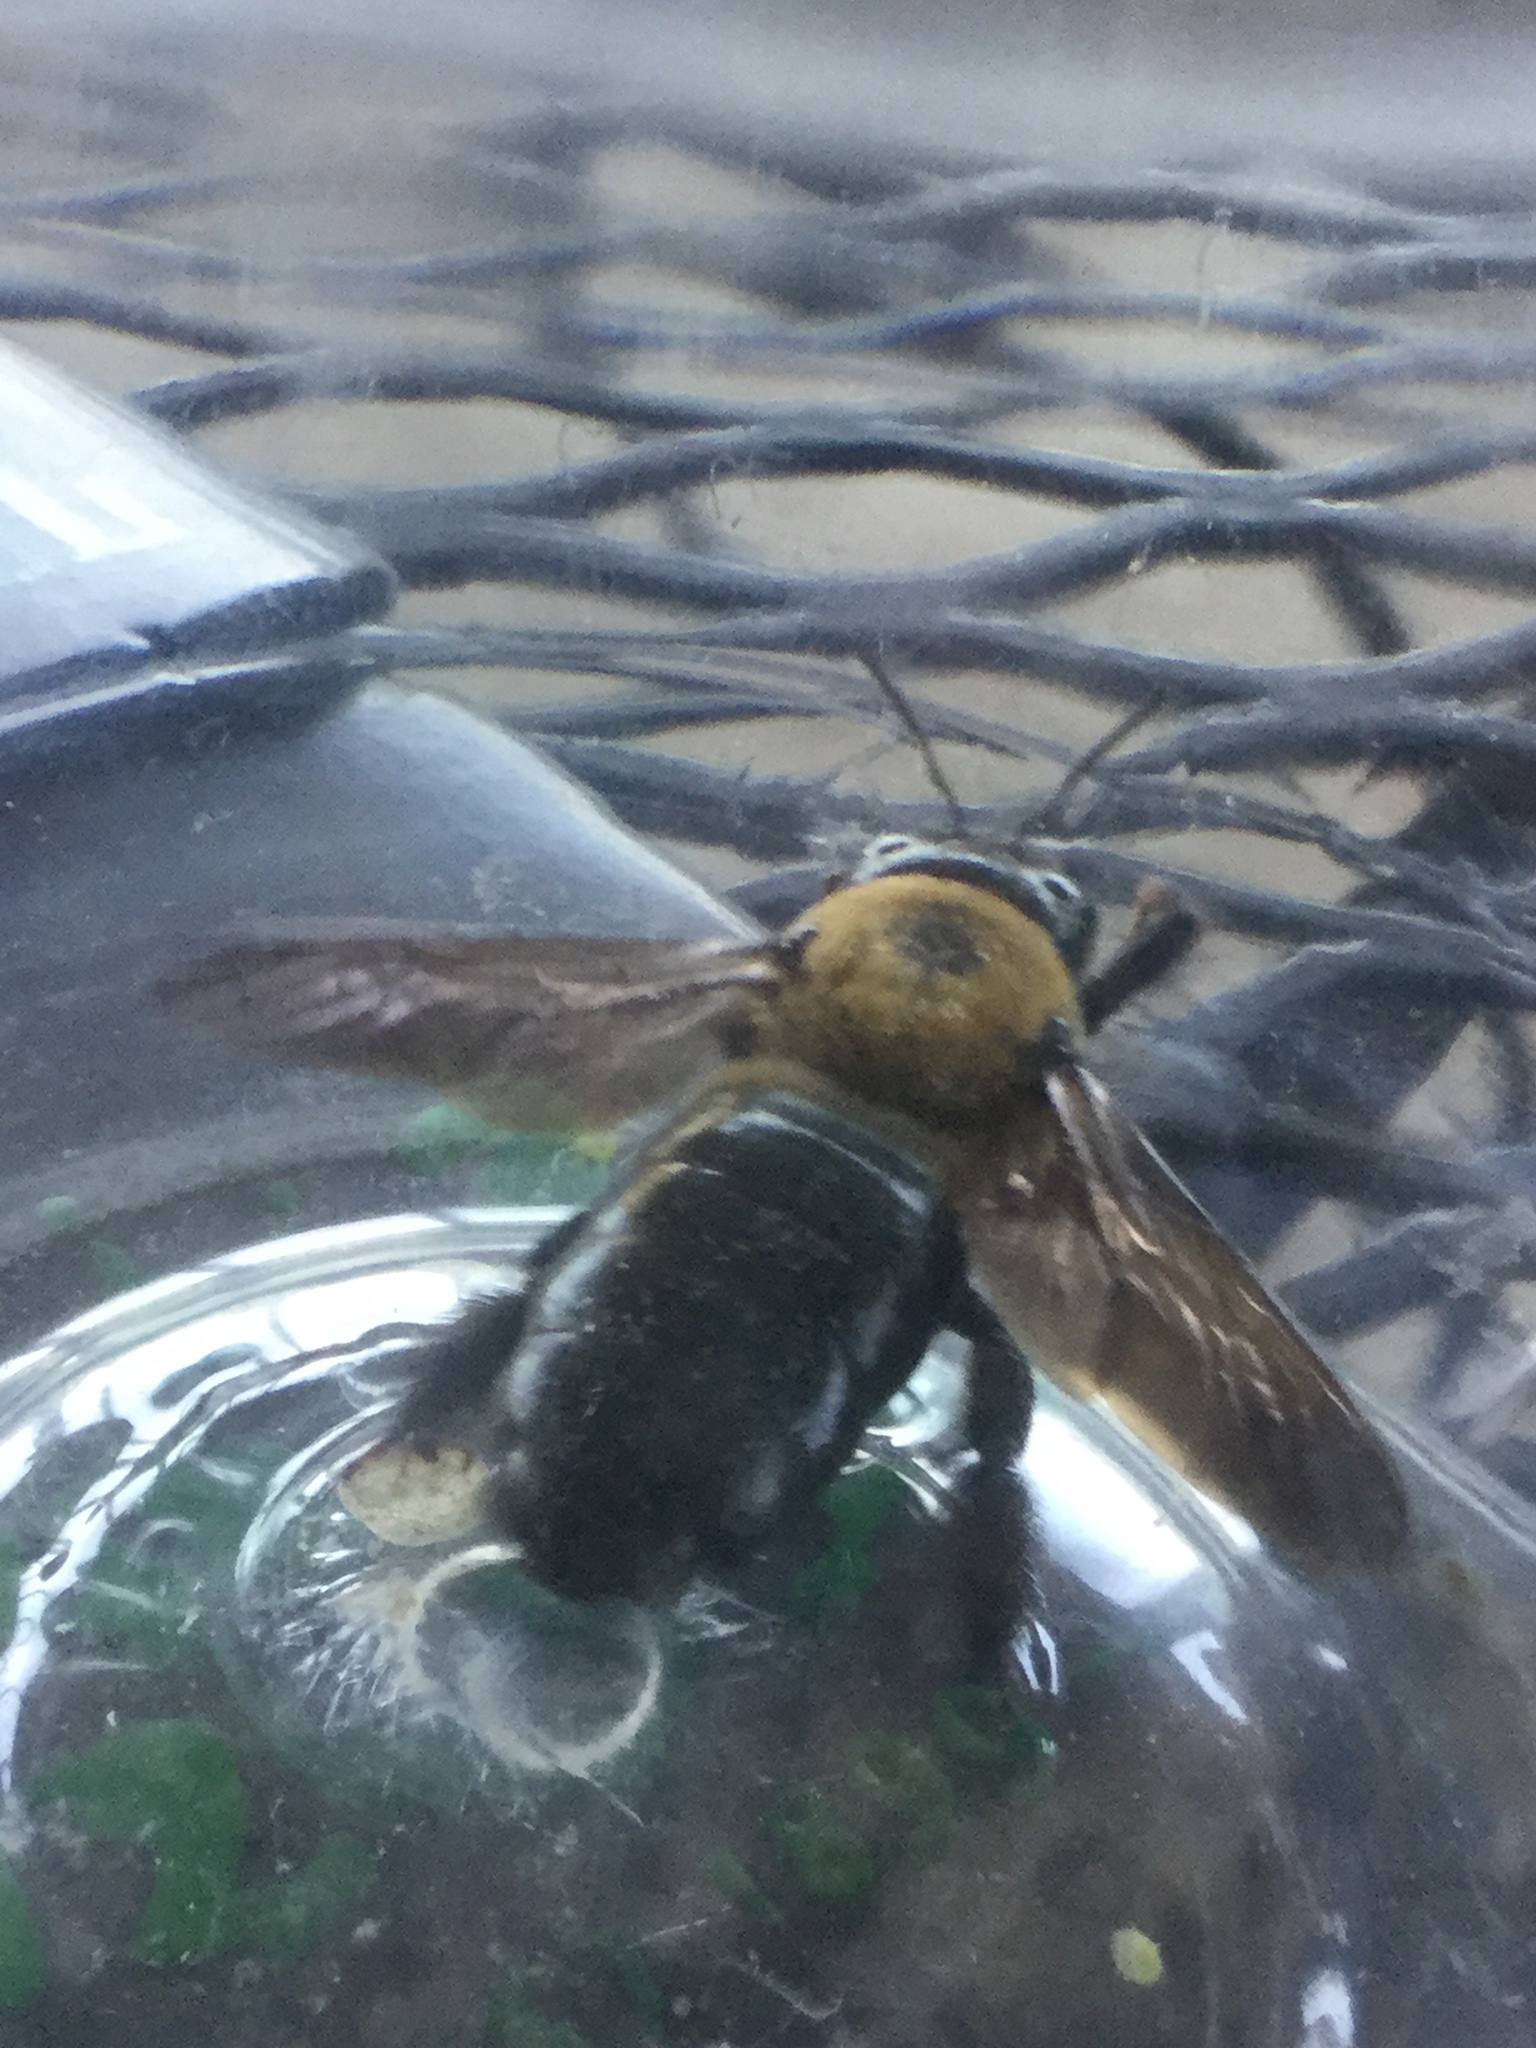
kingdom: Animalia
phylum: Arthropoda
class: Insecta
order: Hymenoptera
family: Apidae
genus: Xylocopa
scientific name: Xylocopa virginica
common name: Carpenter bee
